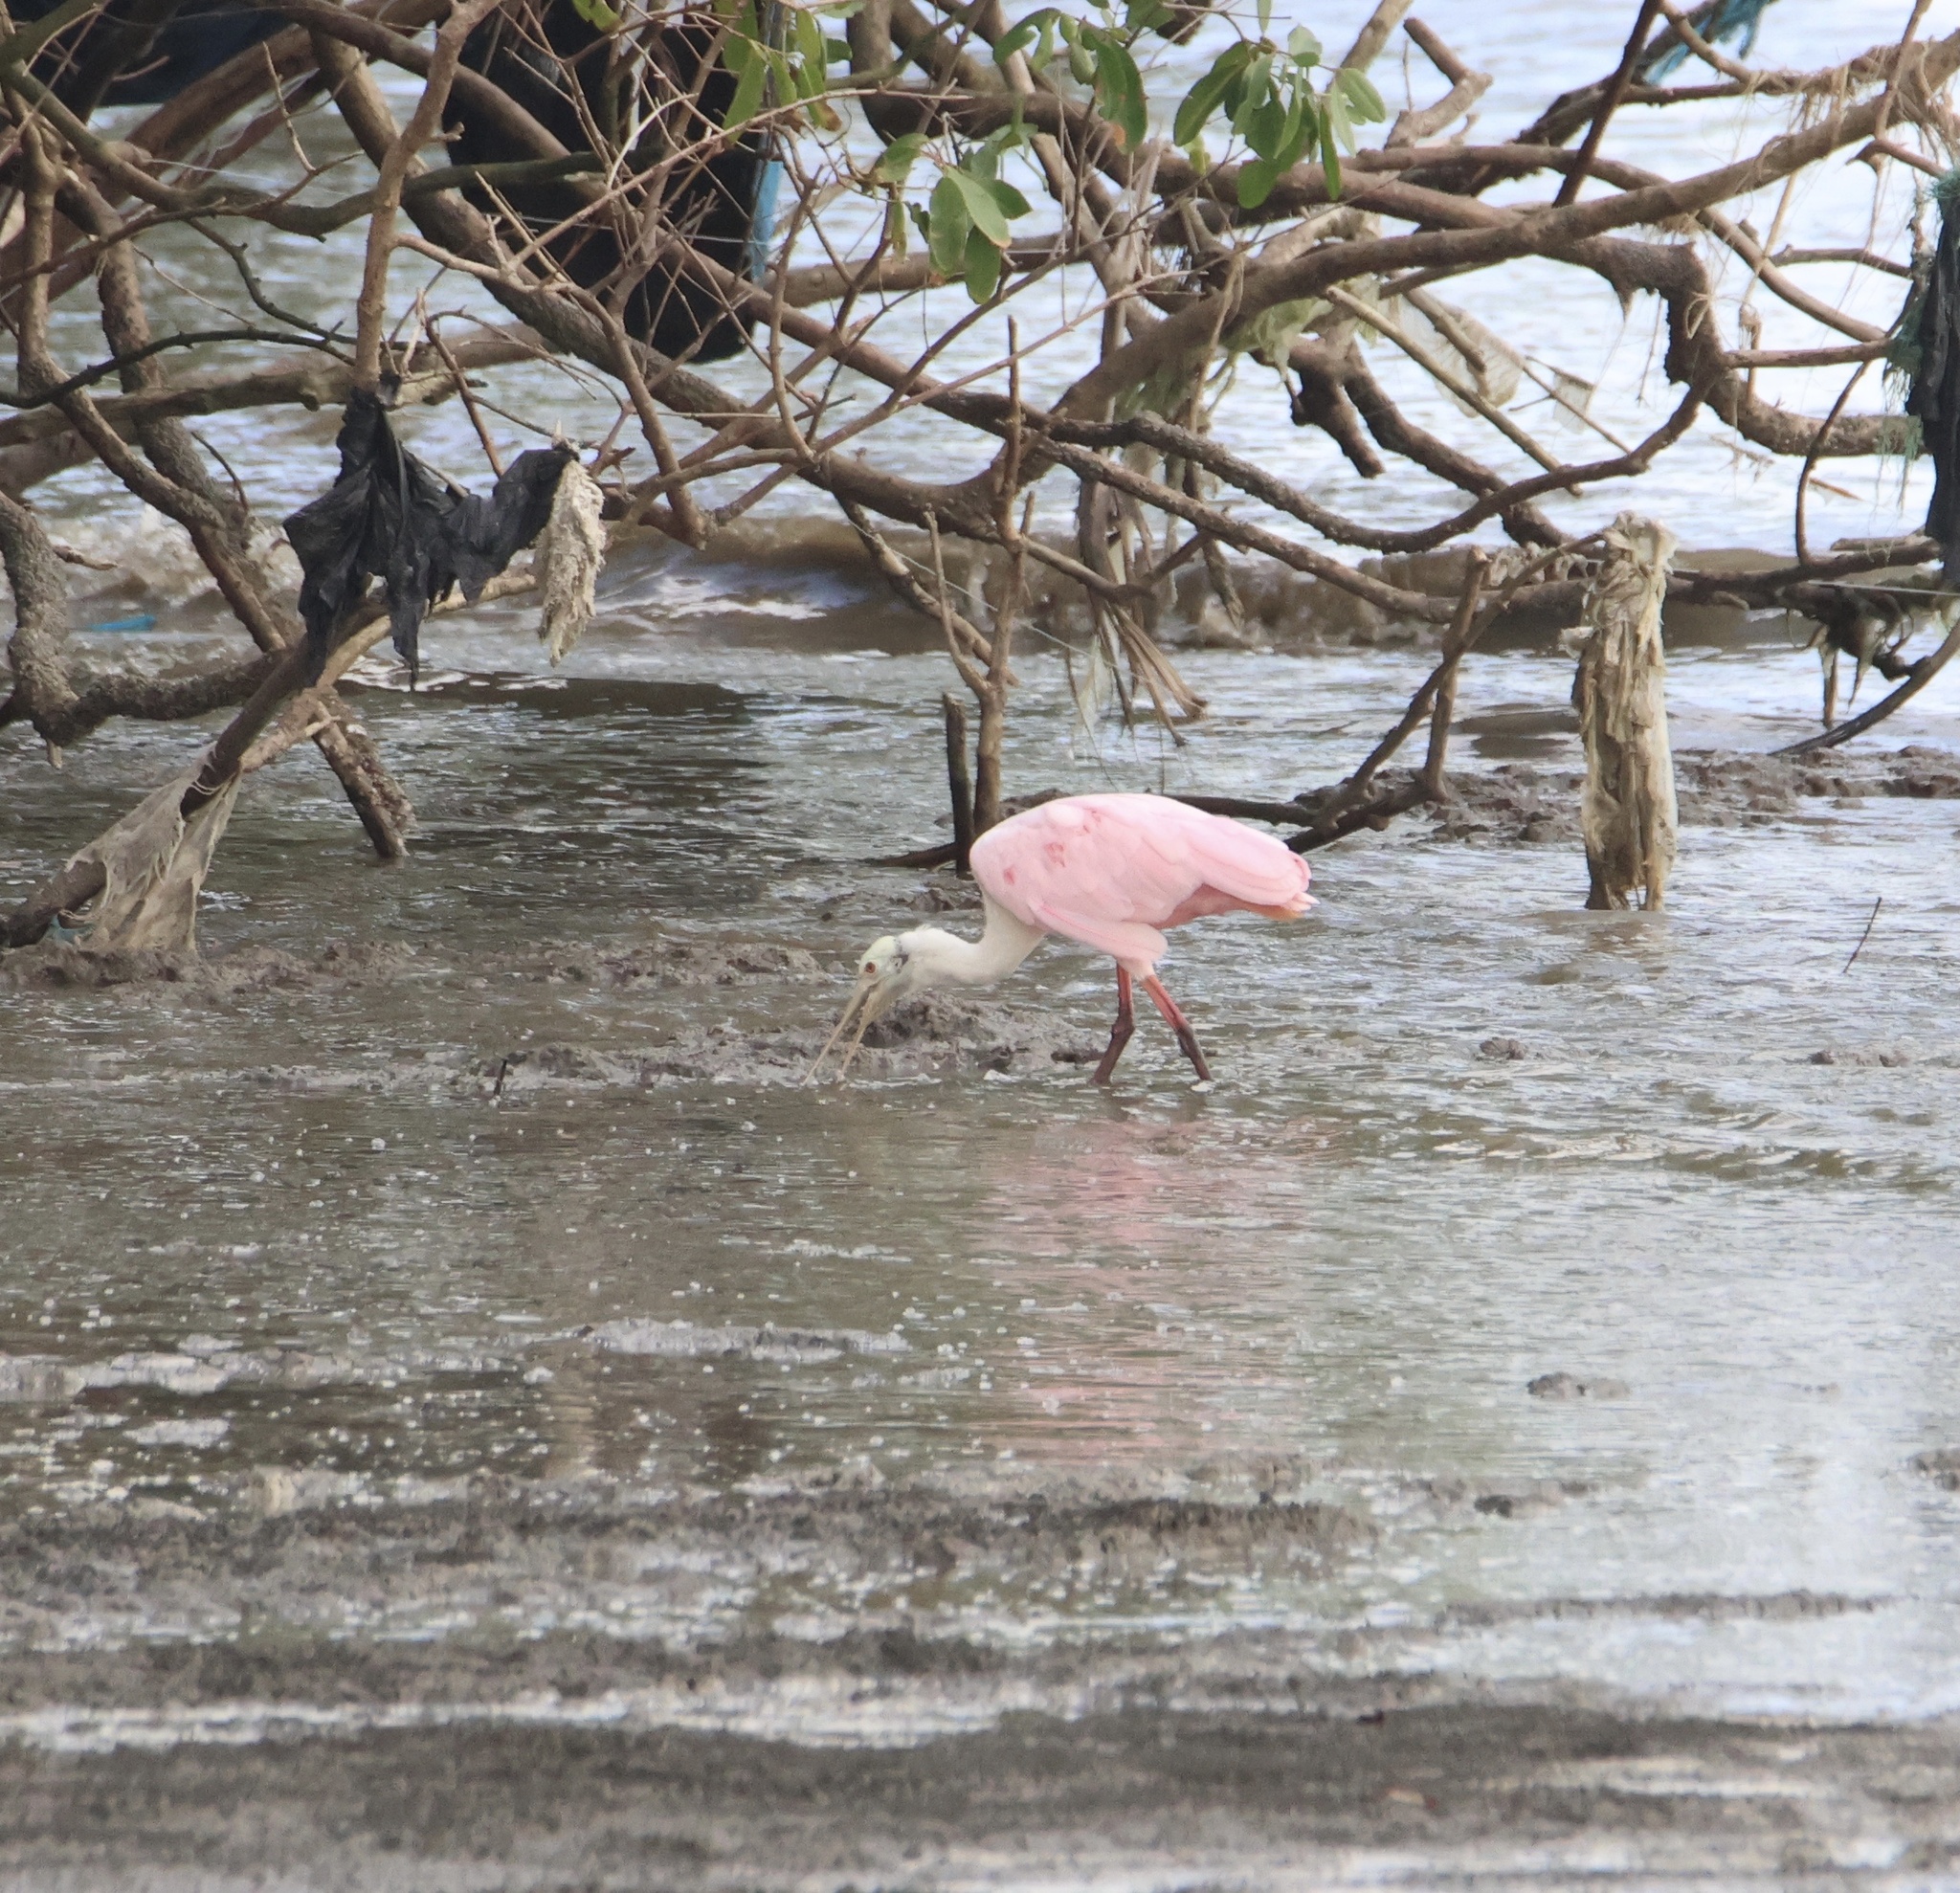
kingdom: Animalia
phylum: Chordata
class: Aves
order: Pelecaniformes
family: Threskiornithidae
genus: Platalea
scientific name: Platalea ajaja
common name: Roseate spoonbill
